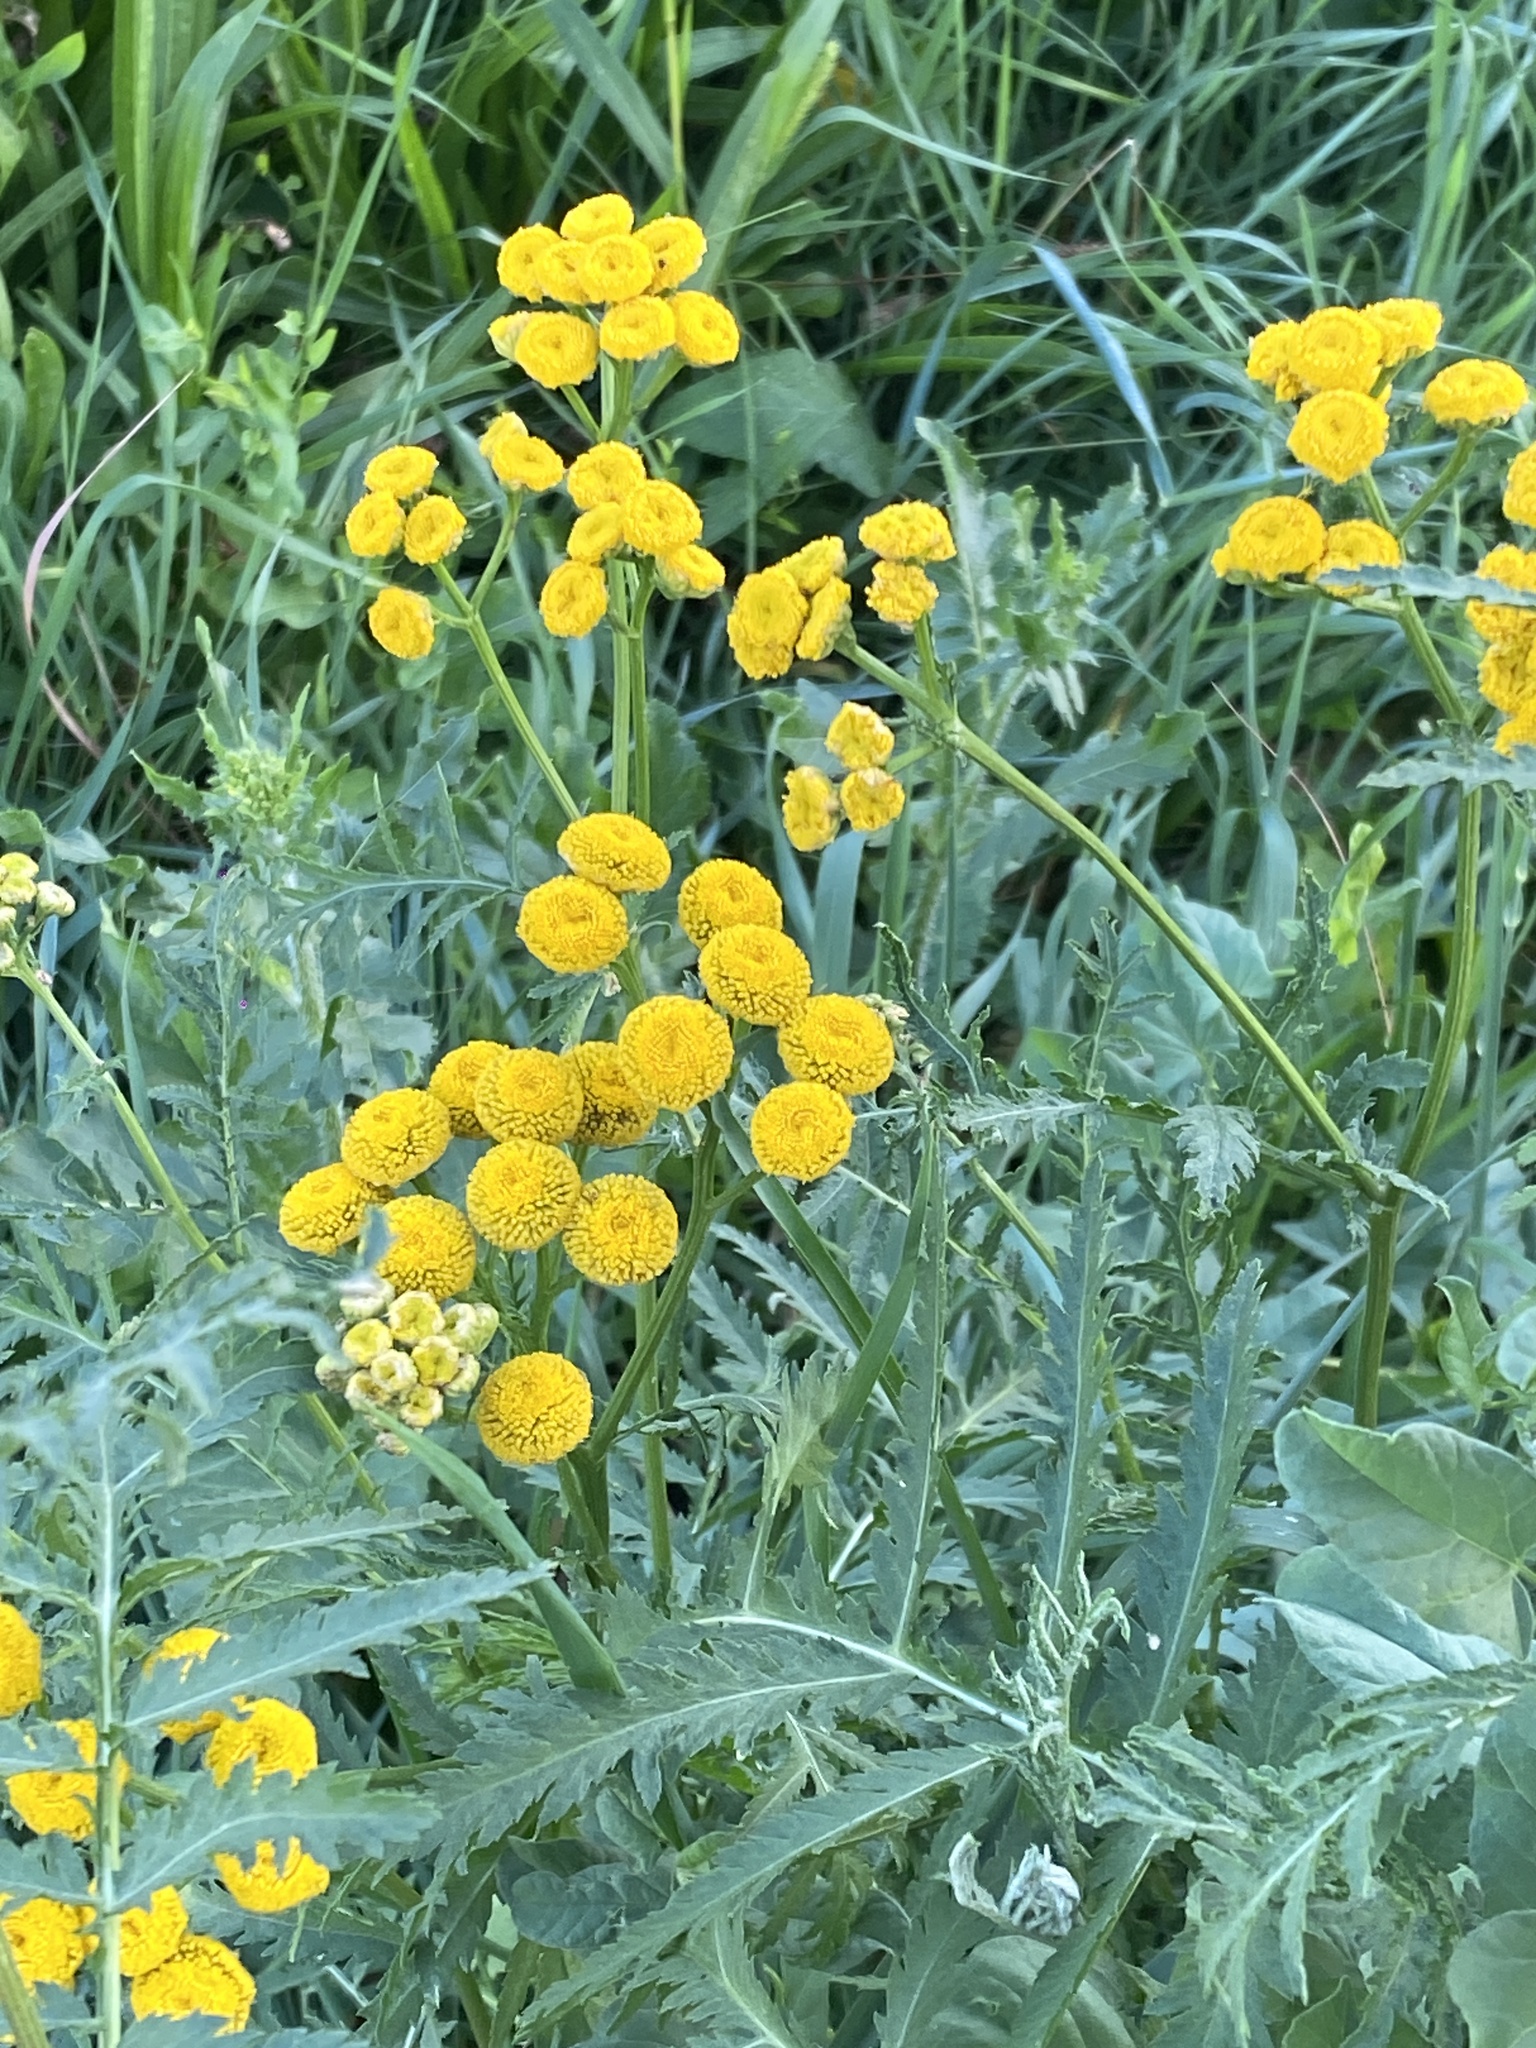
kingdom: Plantae
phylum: Tracheophyta
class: Magnoliopsida
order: Asterales
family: Asteraceae
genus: Tanacetum
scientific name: Tanacetum vulgare
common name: Common tansy
